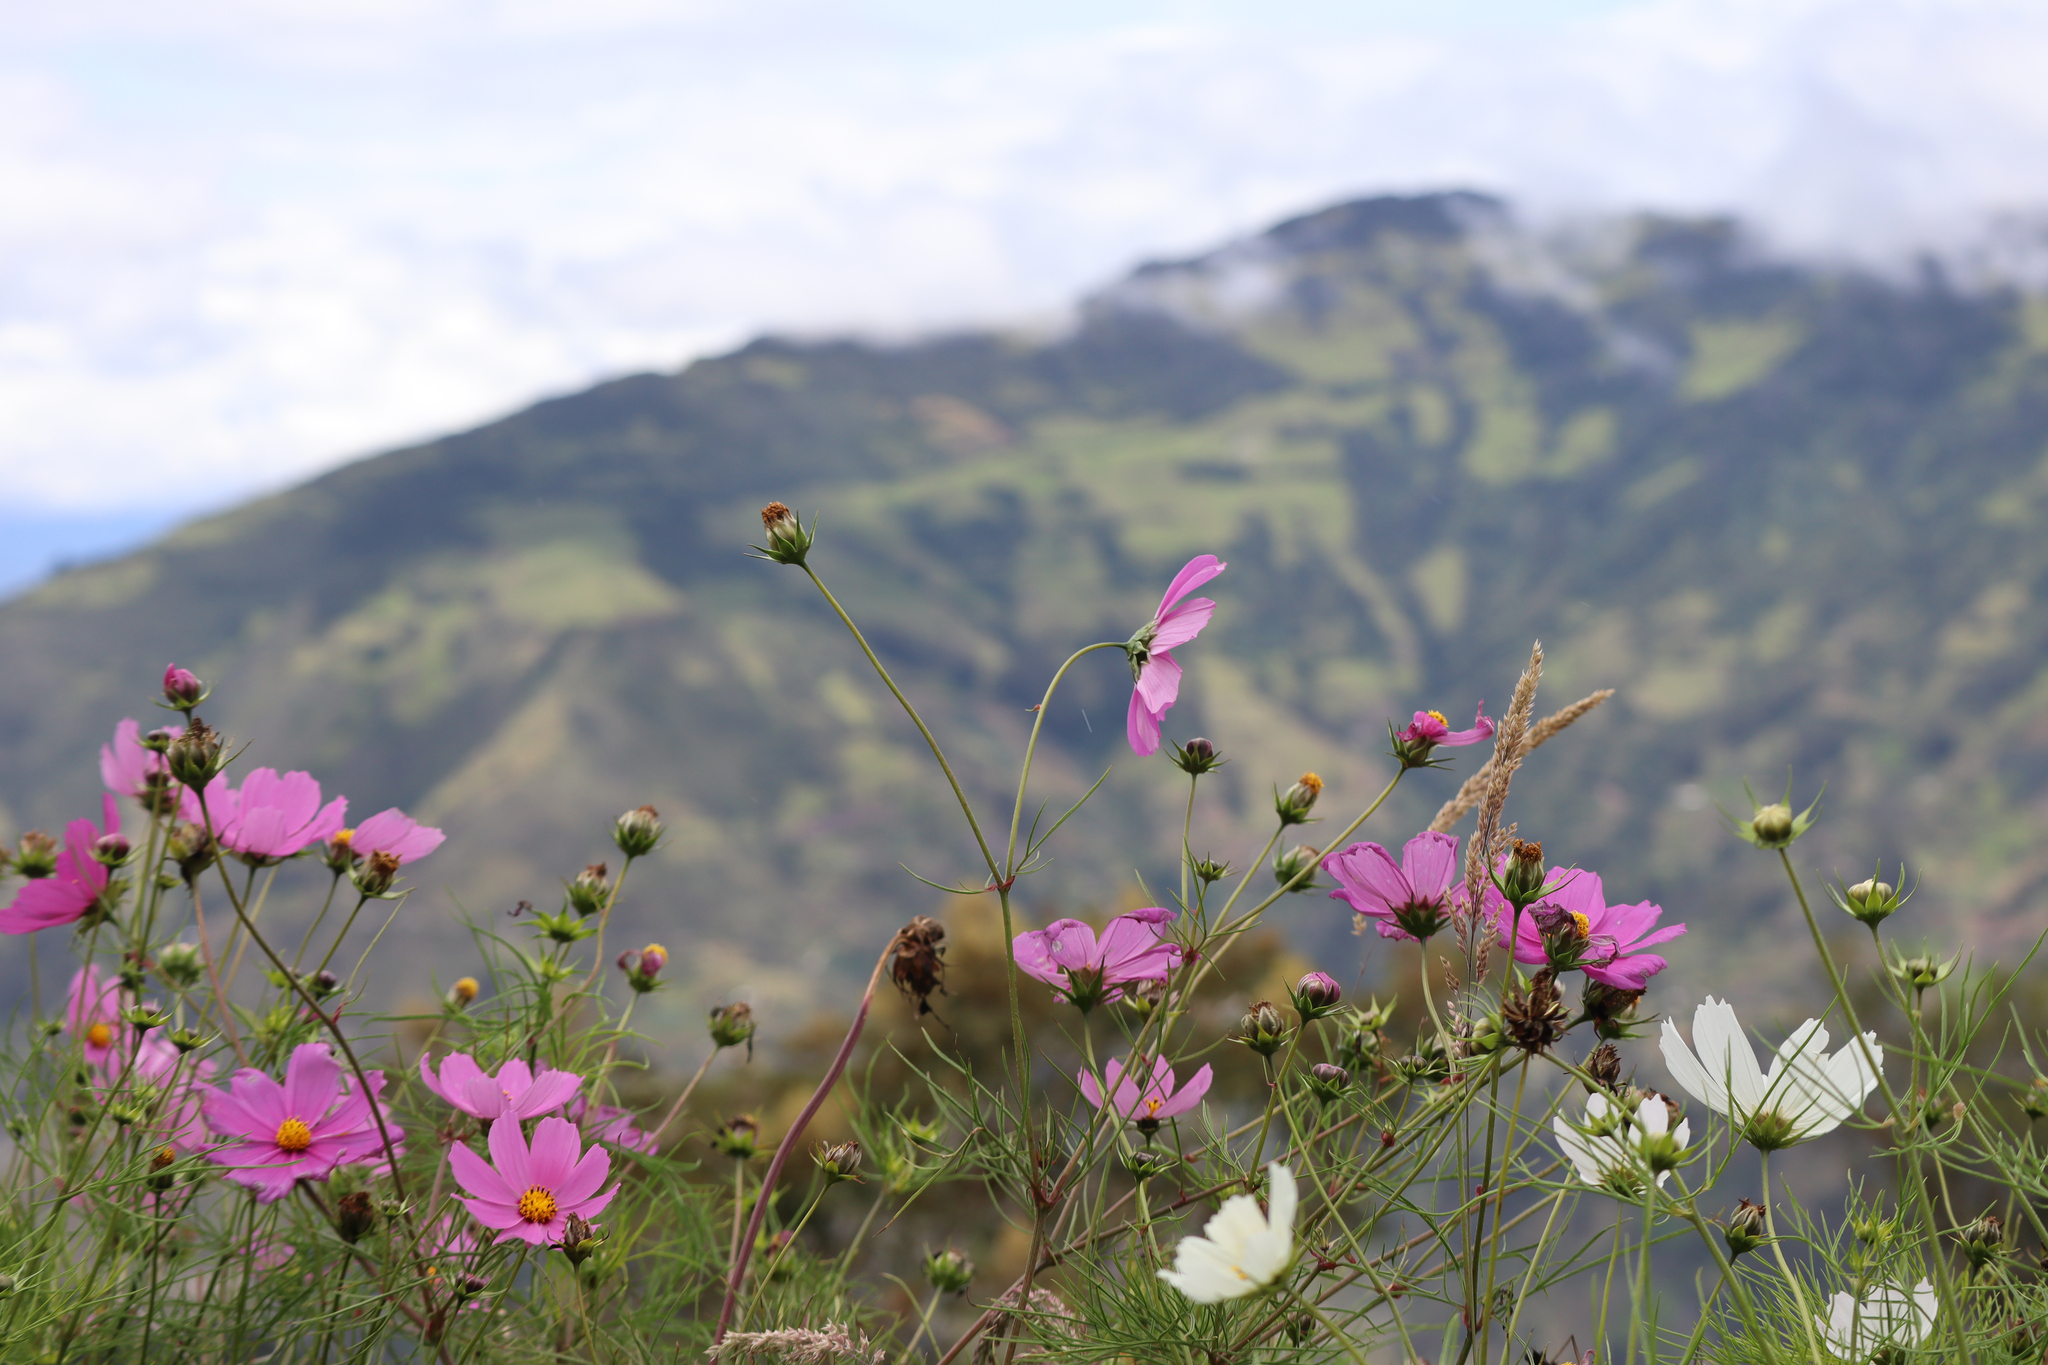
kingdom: Plantae
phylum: Tracheophyta
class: Magnoliopsida
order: Asterales
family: Asteraceae
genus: Cosmos
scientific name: Cosmos bipinnatus
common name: Garden cosmos
